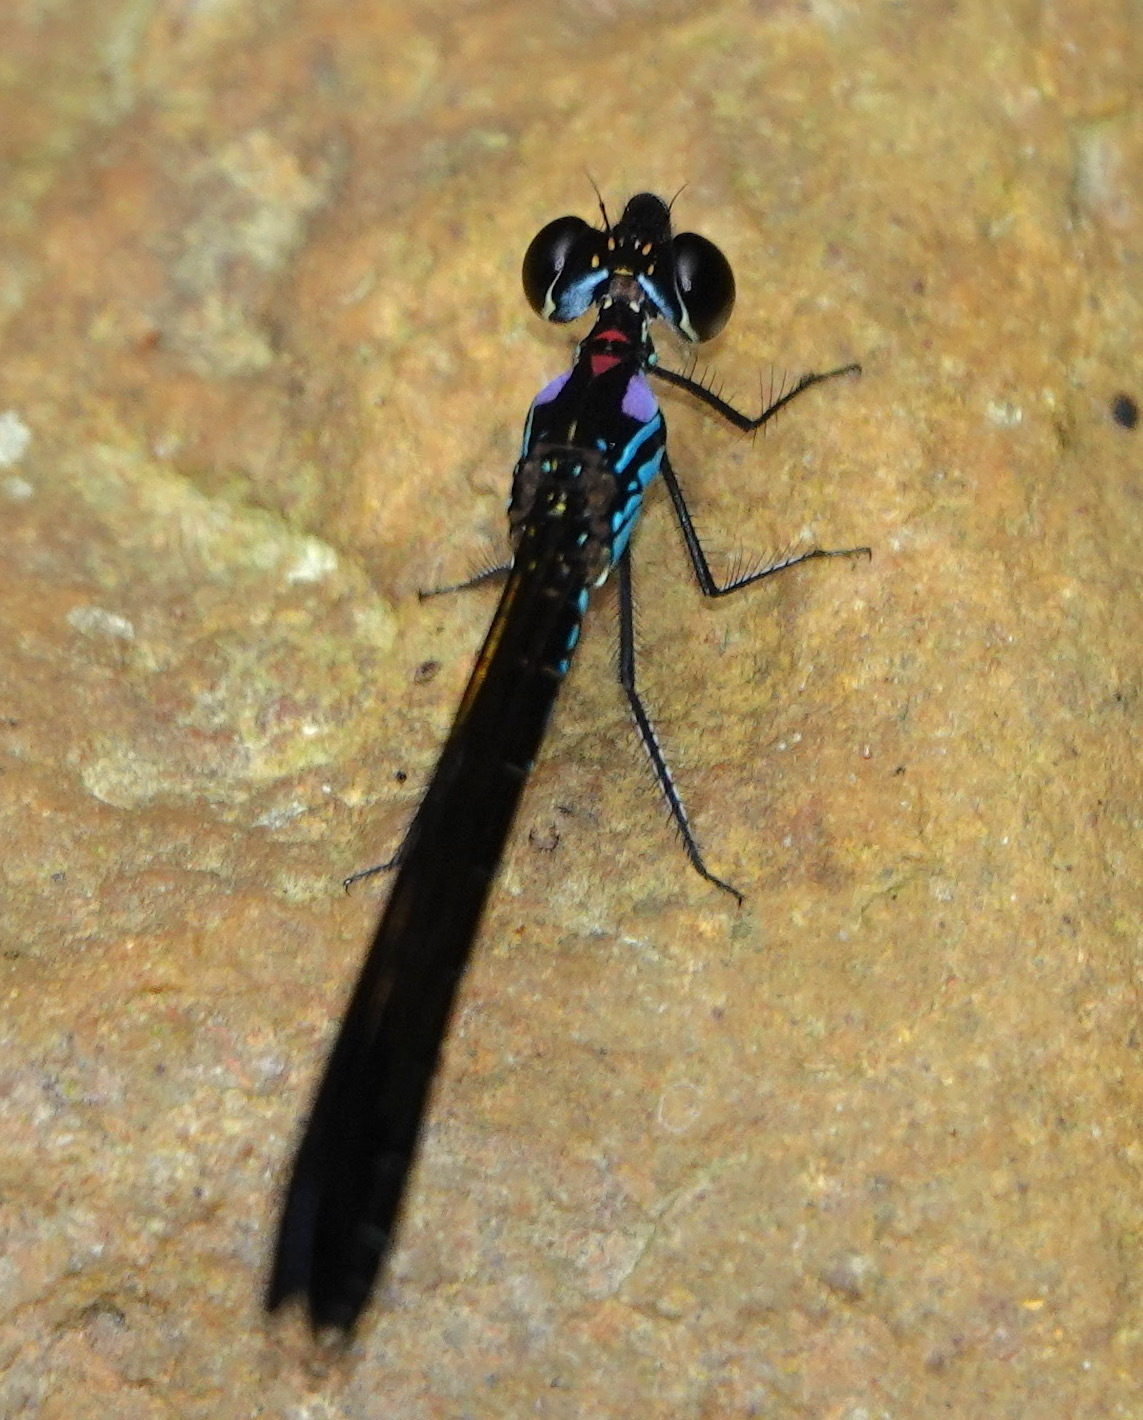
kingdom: Animalia
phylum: Arthropoda
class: Insecta
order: Odonata
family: Chlorocyphidae
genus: Heliocypha
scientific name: Heliocypha biforata
